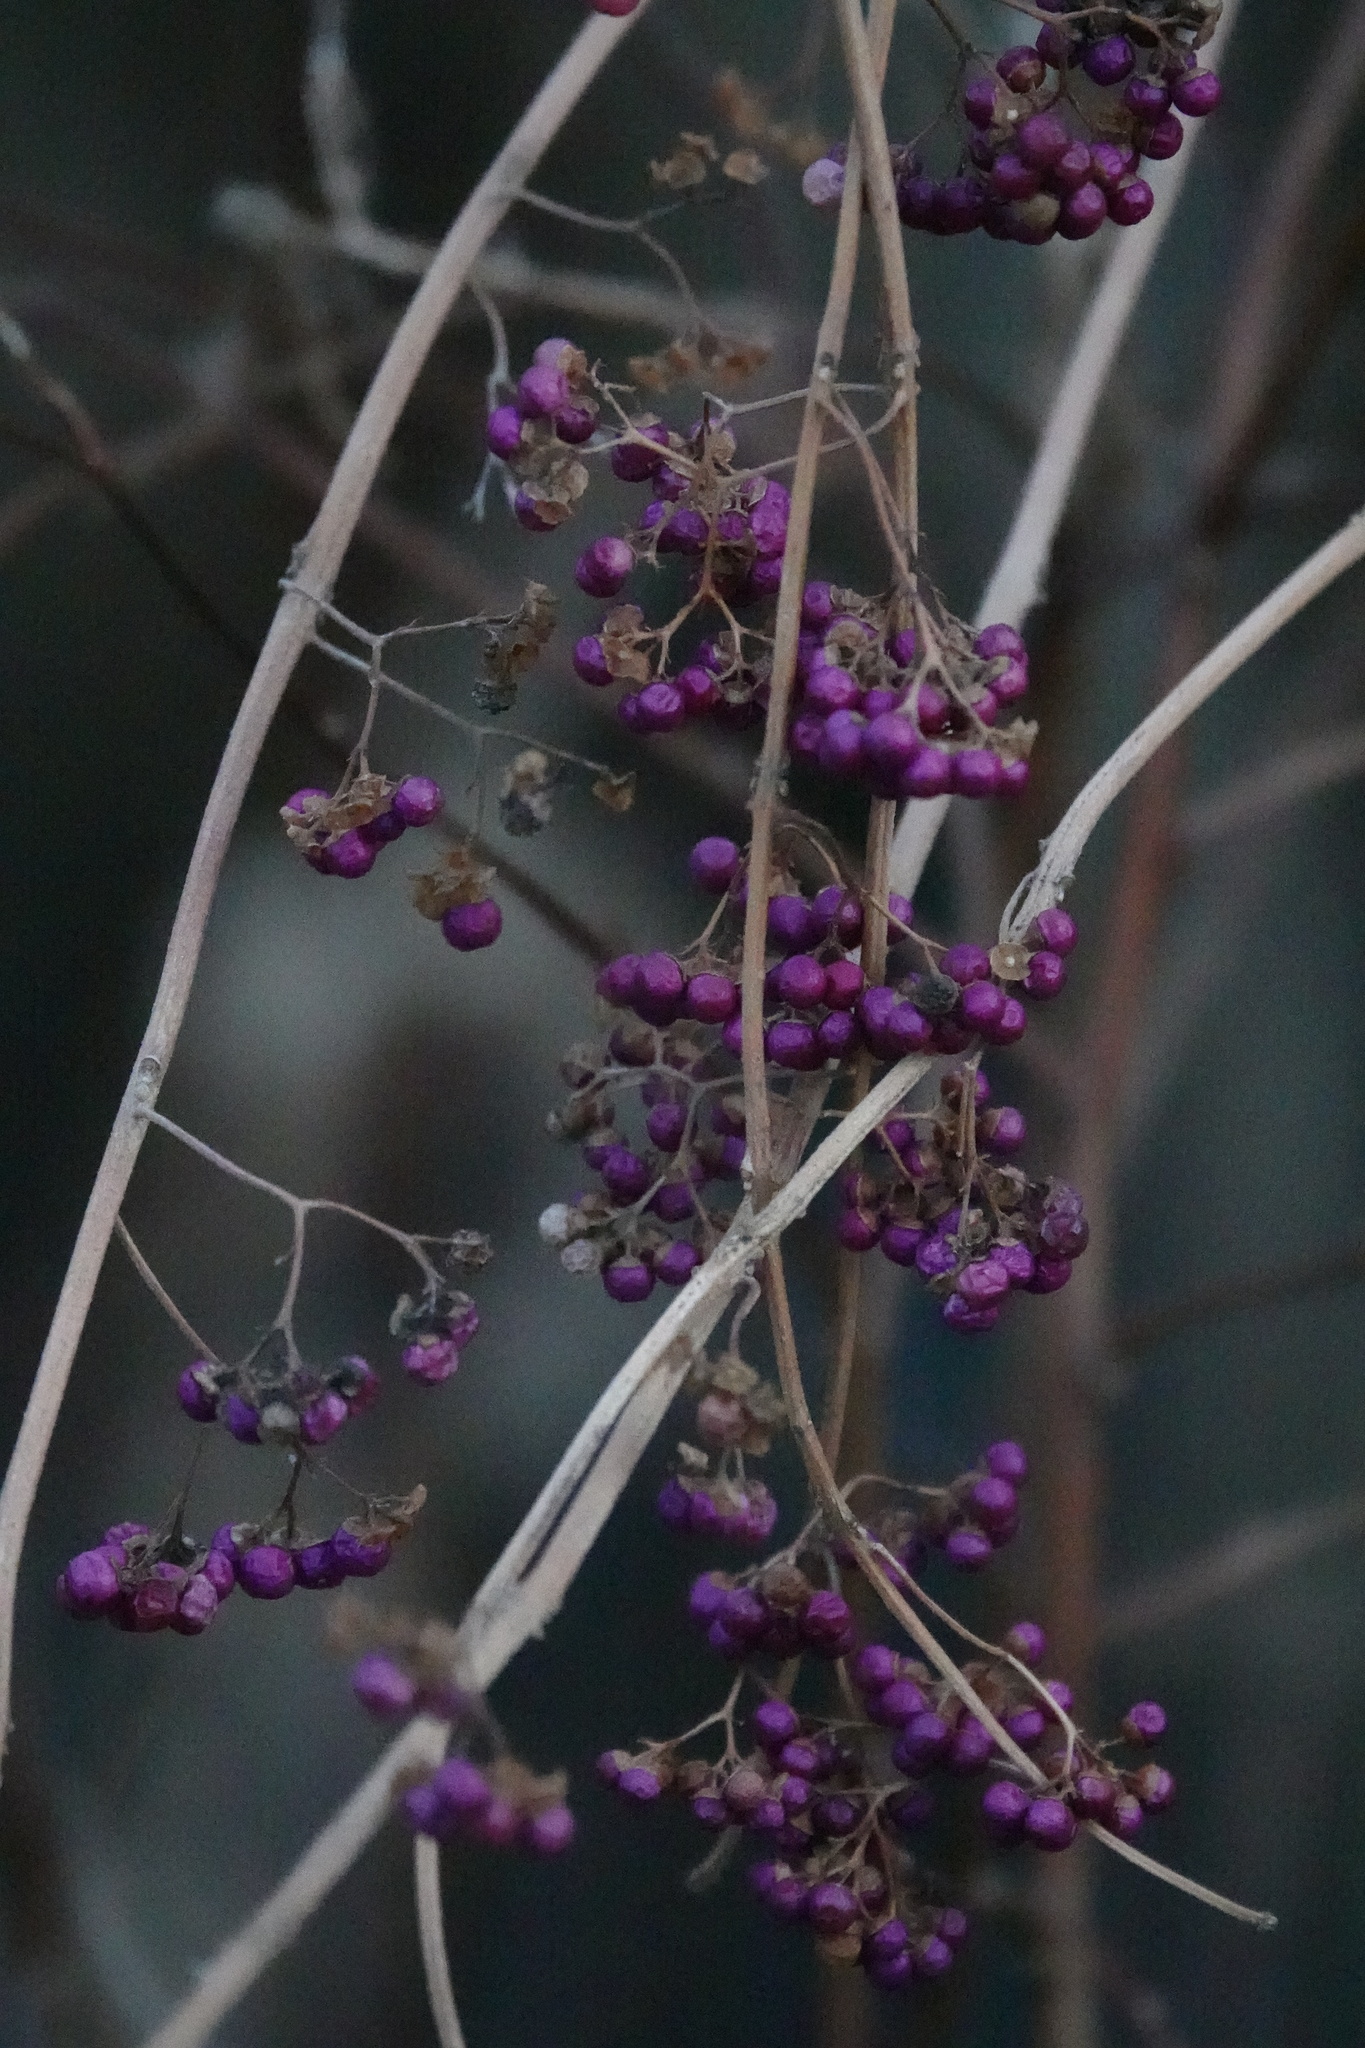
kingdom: Plantae
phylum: Tracheophyta
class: Magnoliopsida
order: Lamiales
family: Lamiaceae
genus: Callicarpa
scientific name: Callicarpa dichotoma
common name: Purple beauty-berry
